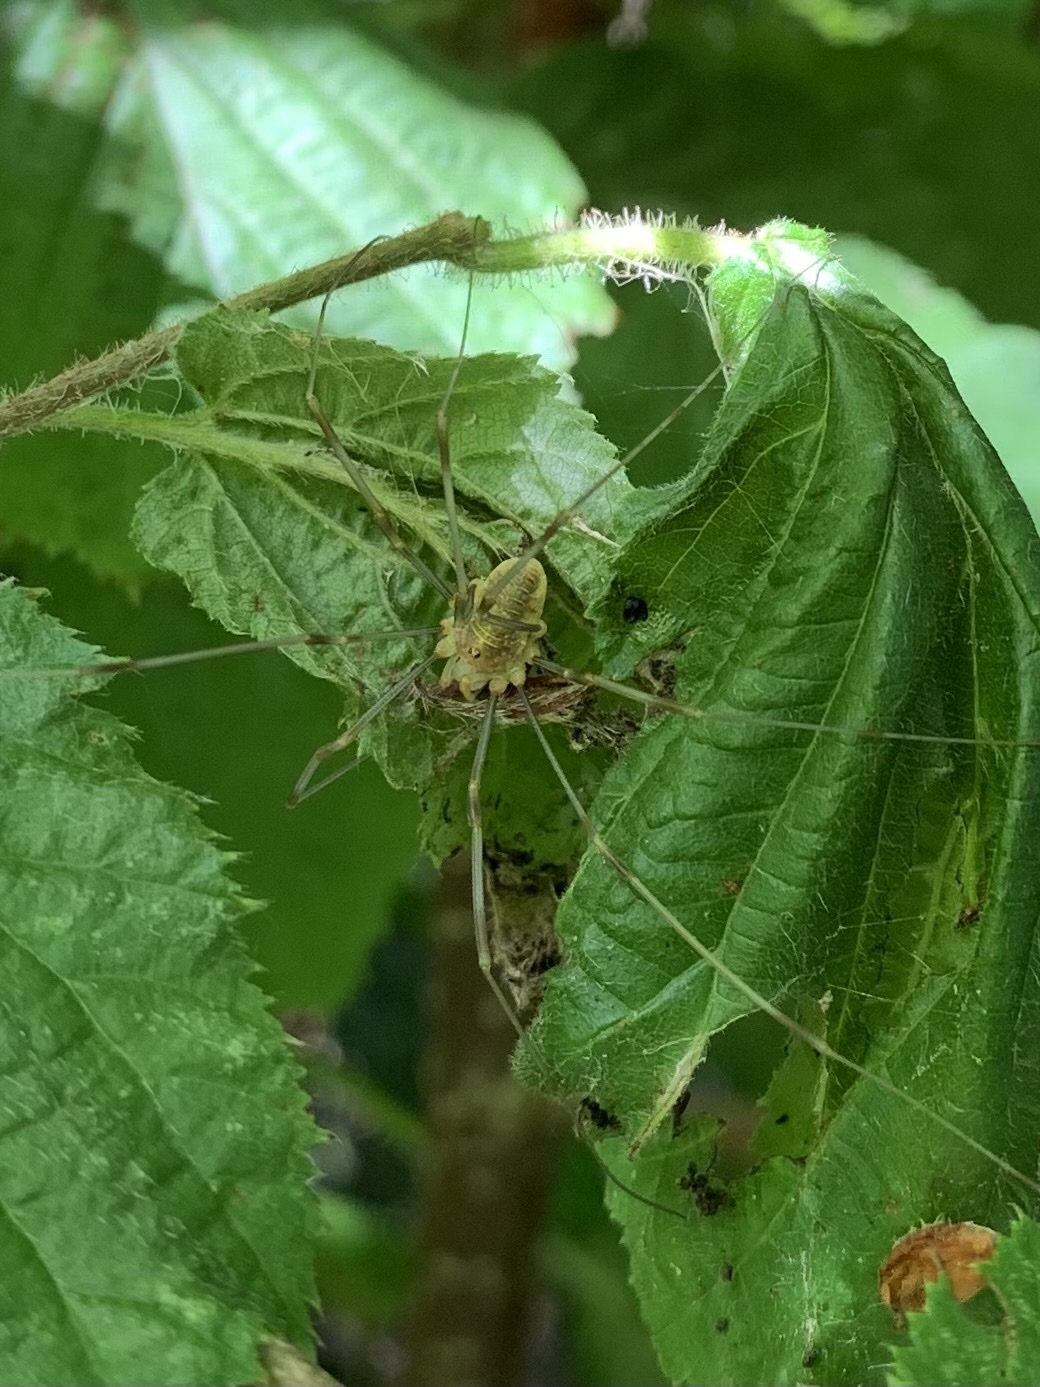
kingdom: Animalia
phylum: Arthropoda
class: Arachnida
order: Opiliones
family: Phalangiidae
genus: Opilio
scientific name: Opilio canestrinii
